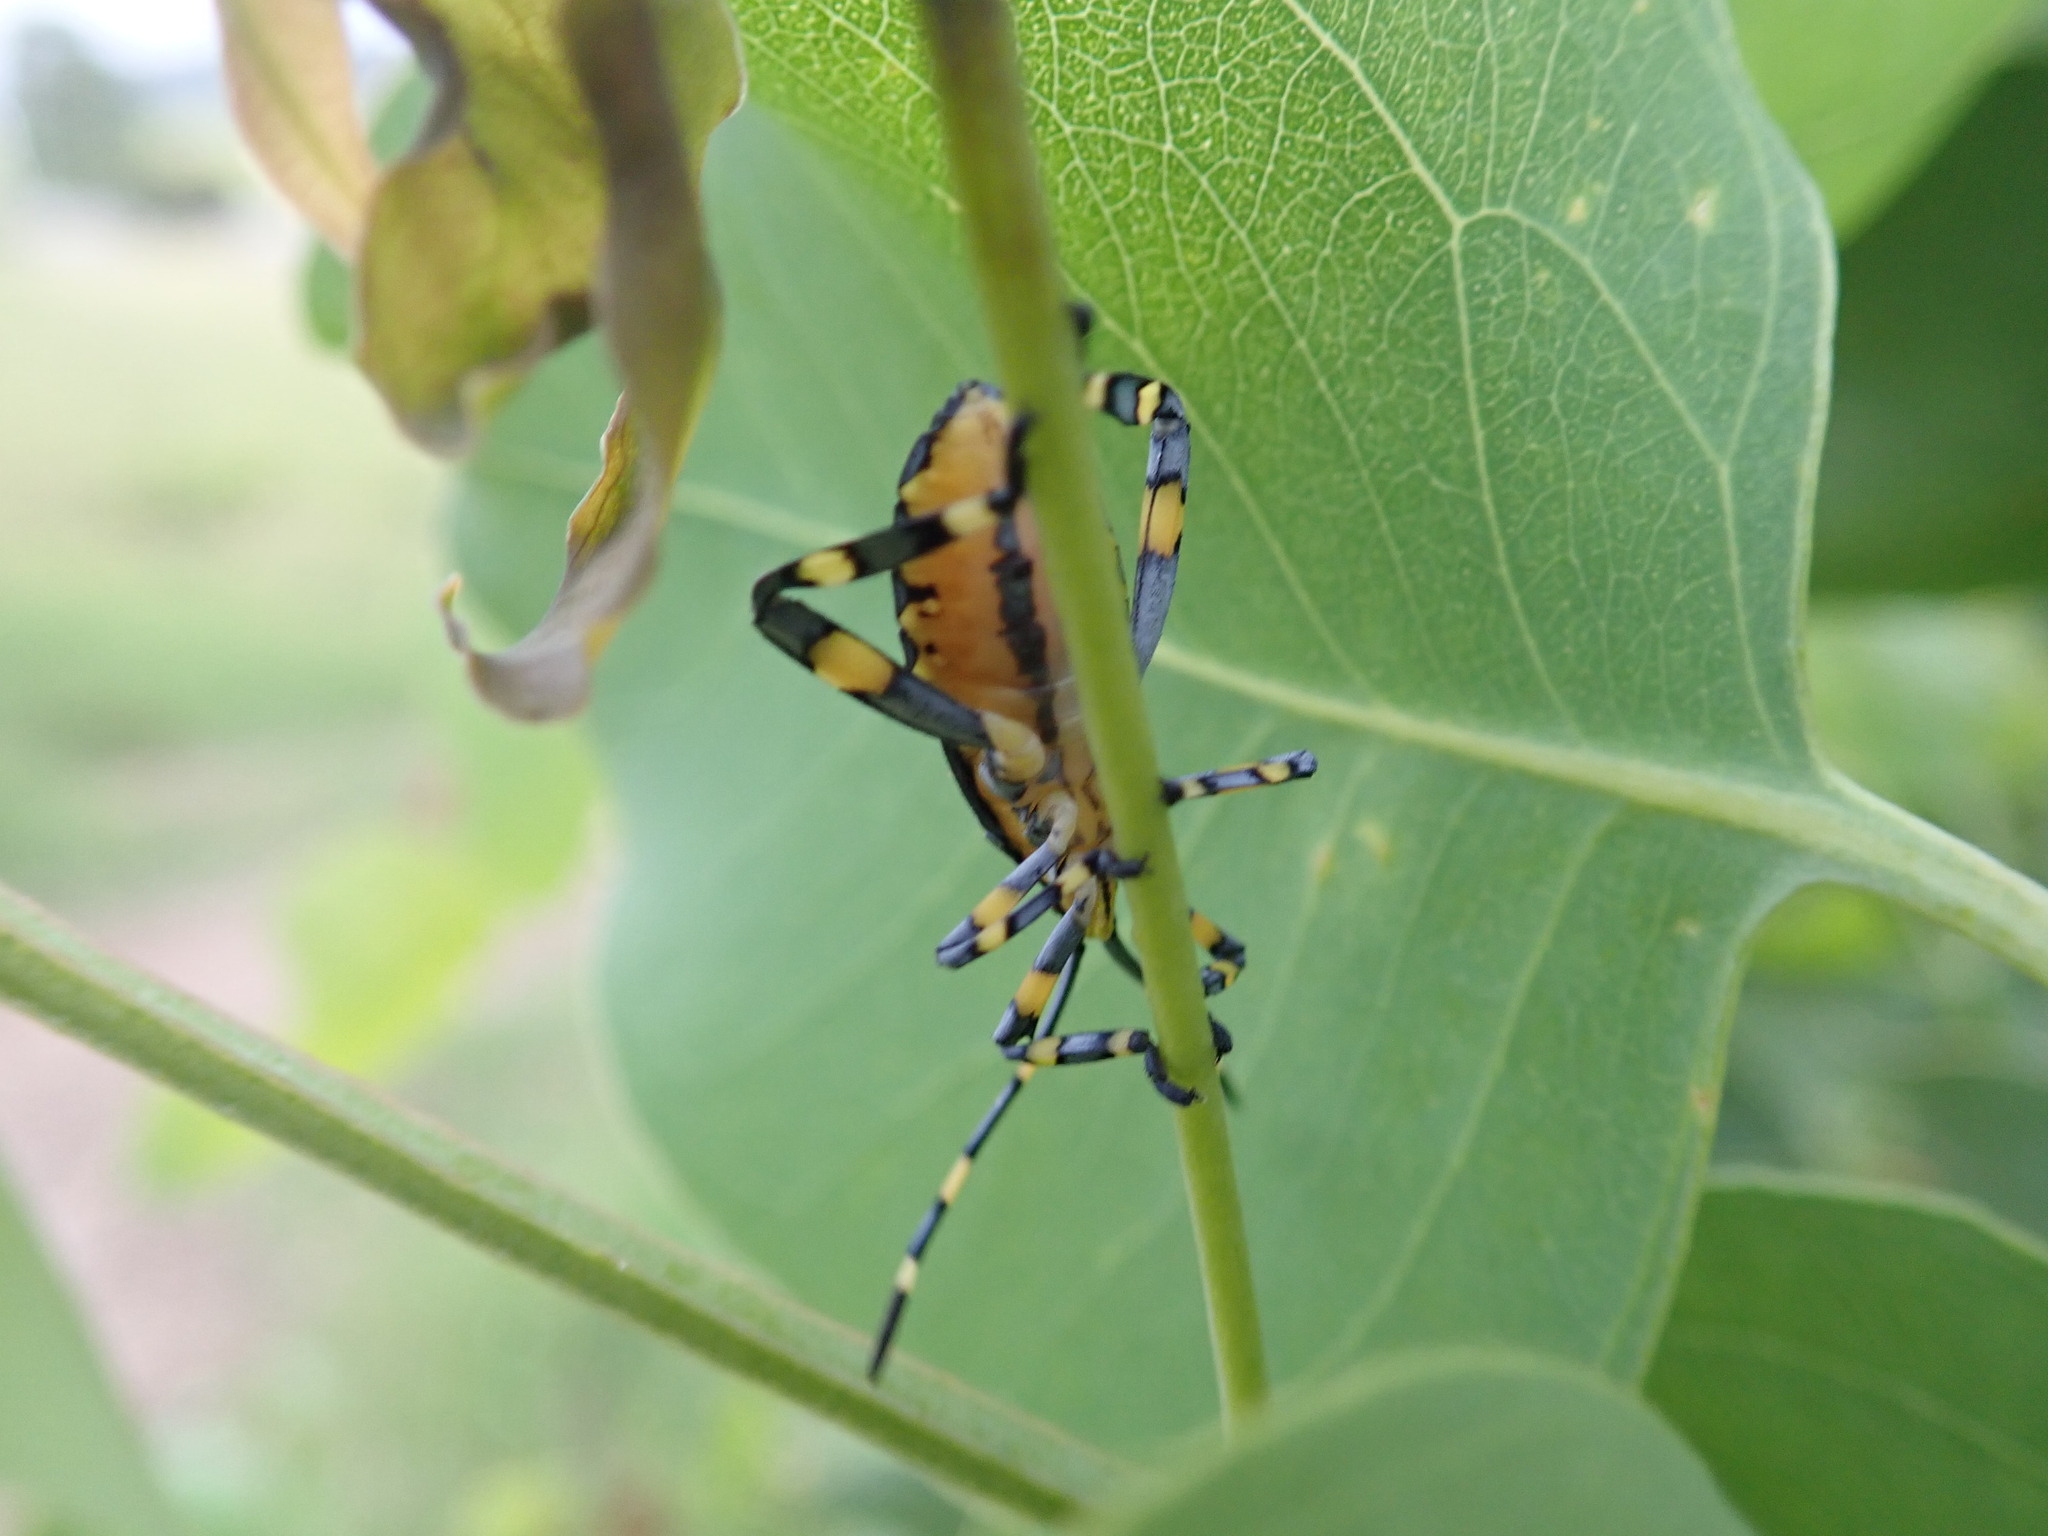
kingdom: Animalia
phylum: Arthropoda
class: Insecta
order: Hemiptera
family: Coreidae
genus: Amorbus
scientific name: Amorbus atomarius
